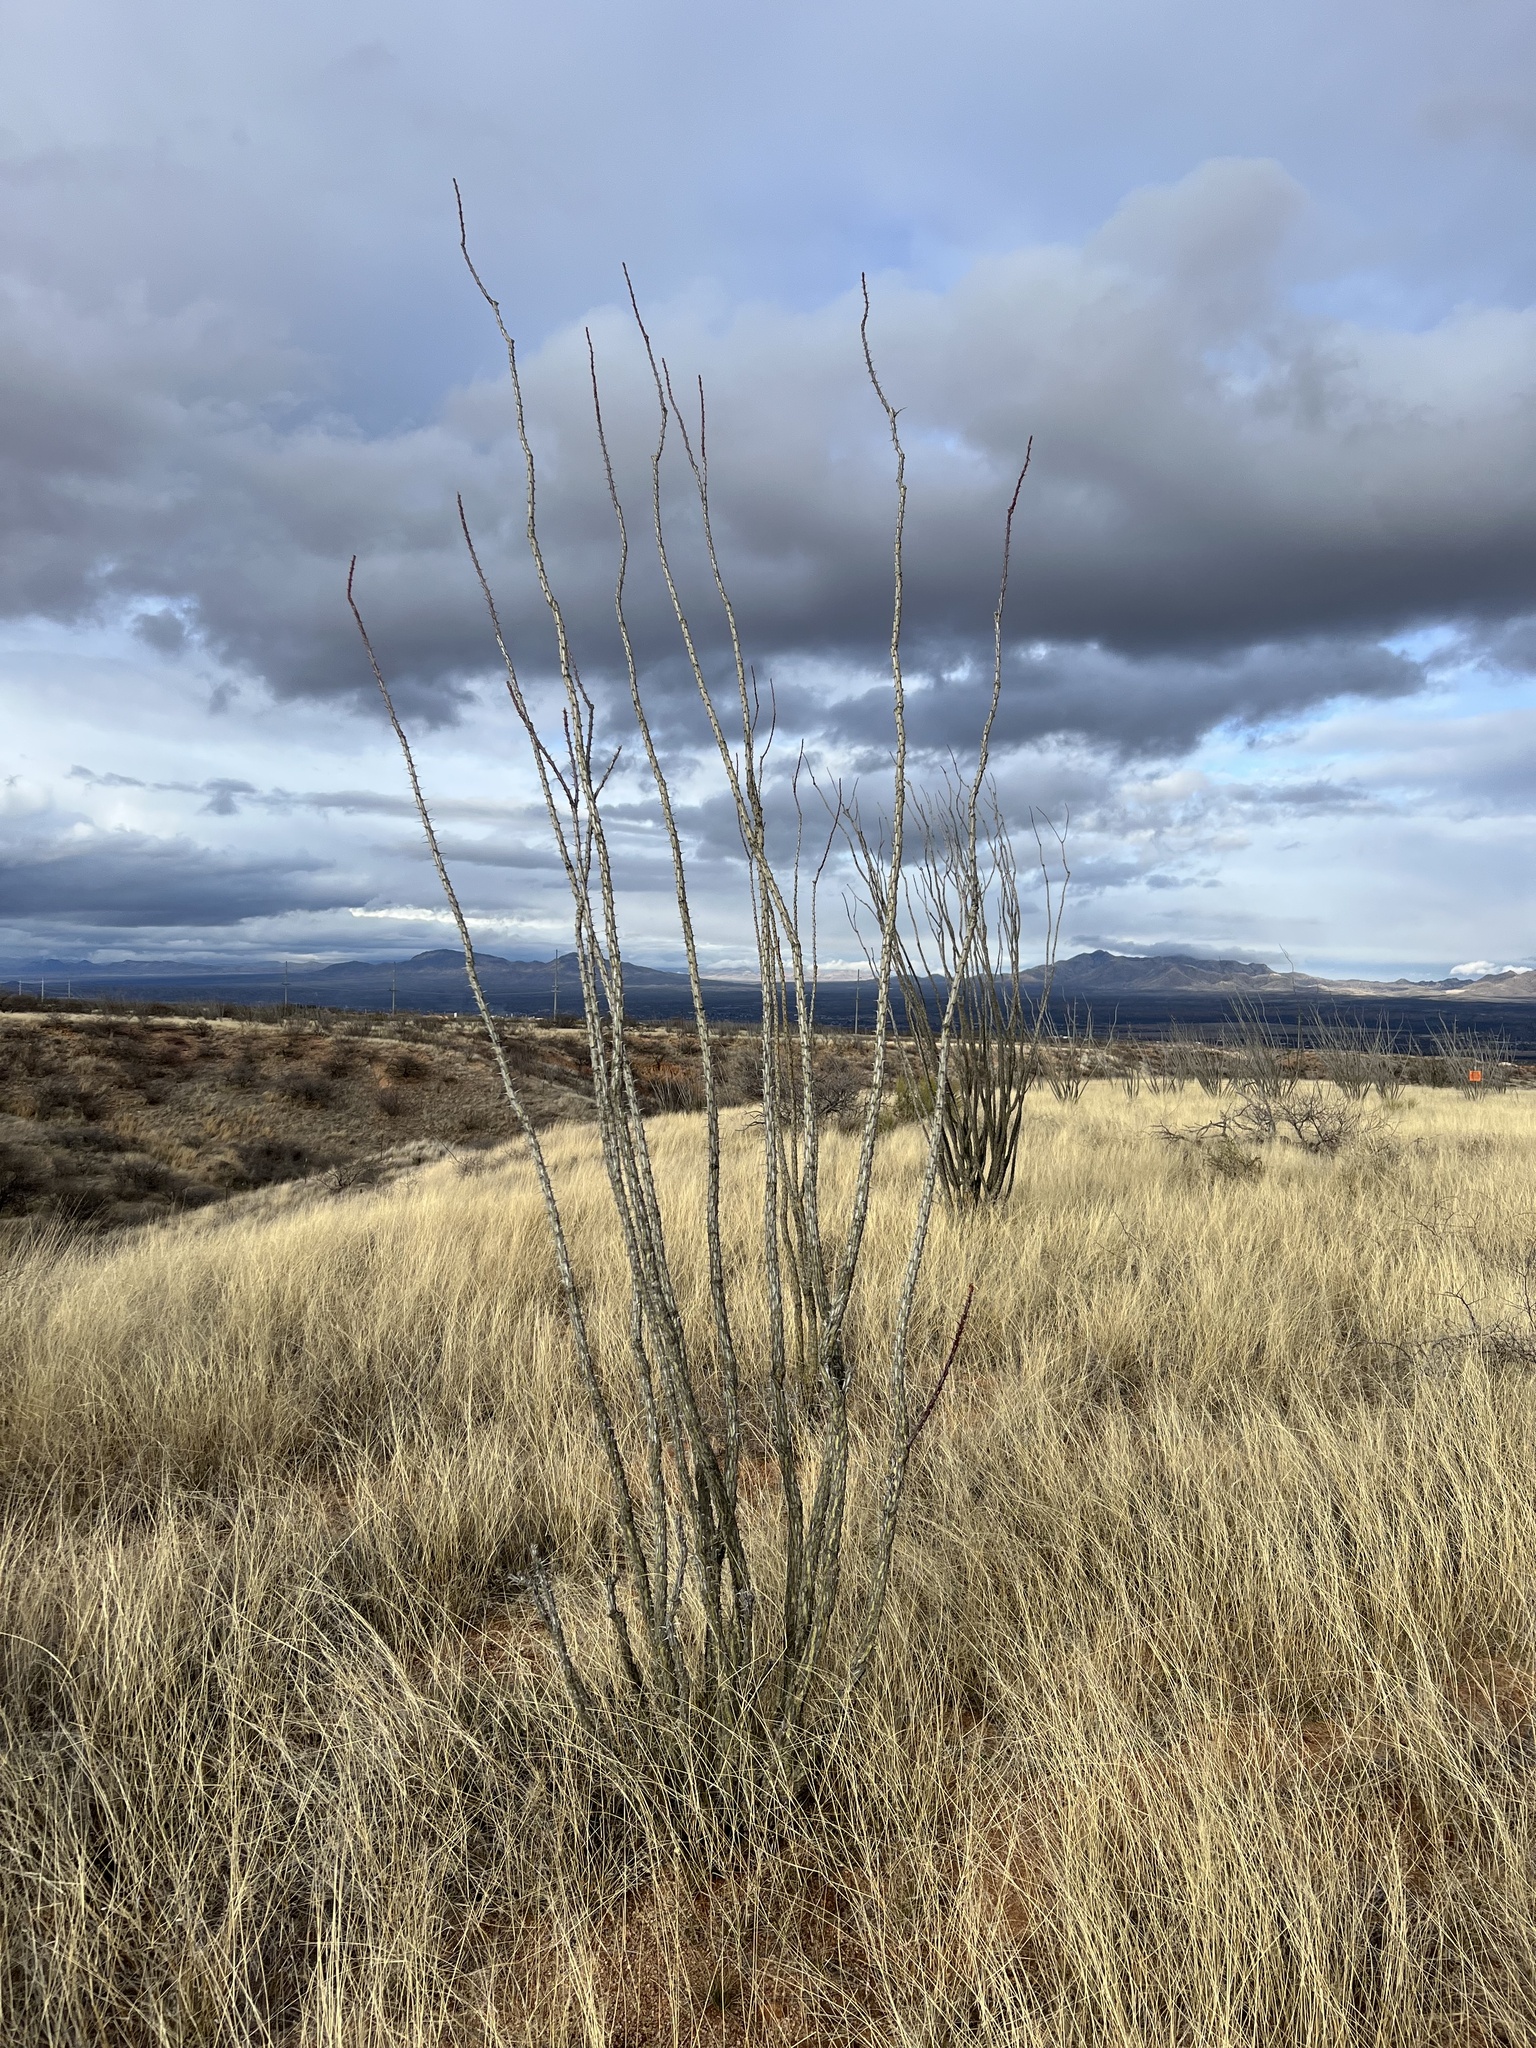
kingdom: Plantae
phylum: Tracheophyta
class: Magnoliopsida
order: Ericales
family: Fouquieriaceae
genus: Fouquieria
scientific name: Fouquieria splendens
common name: Vine-cactus
